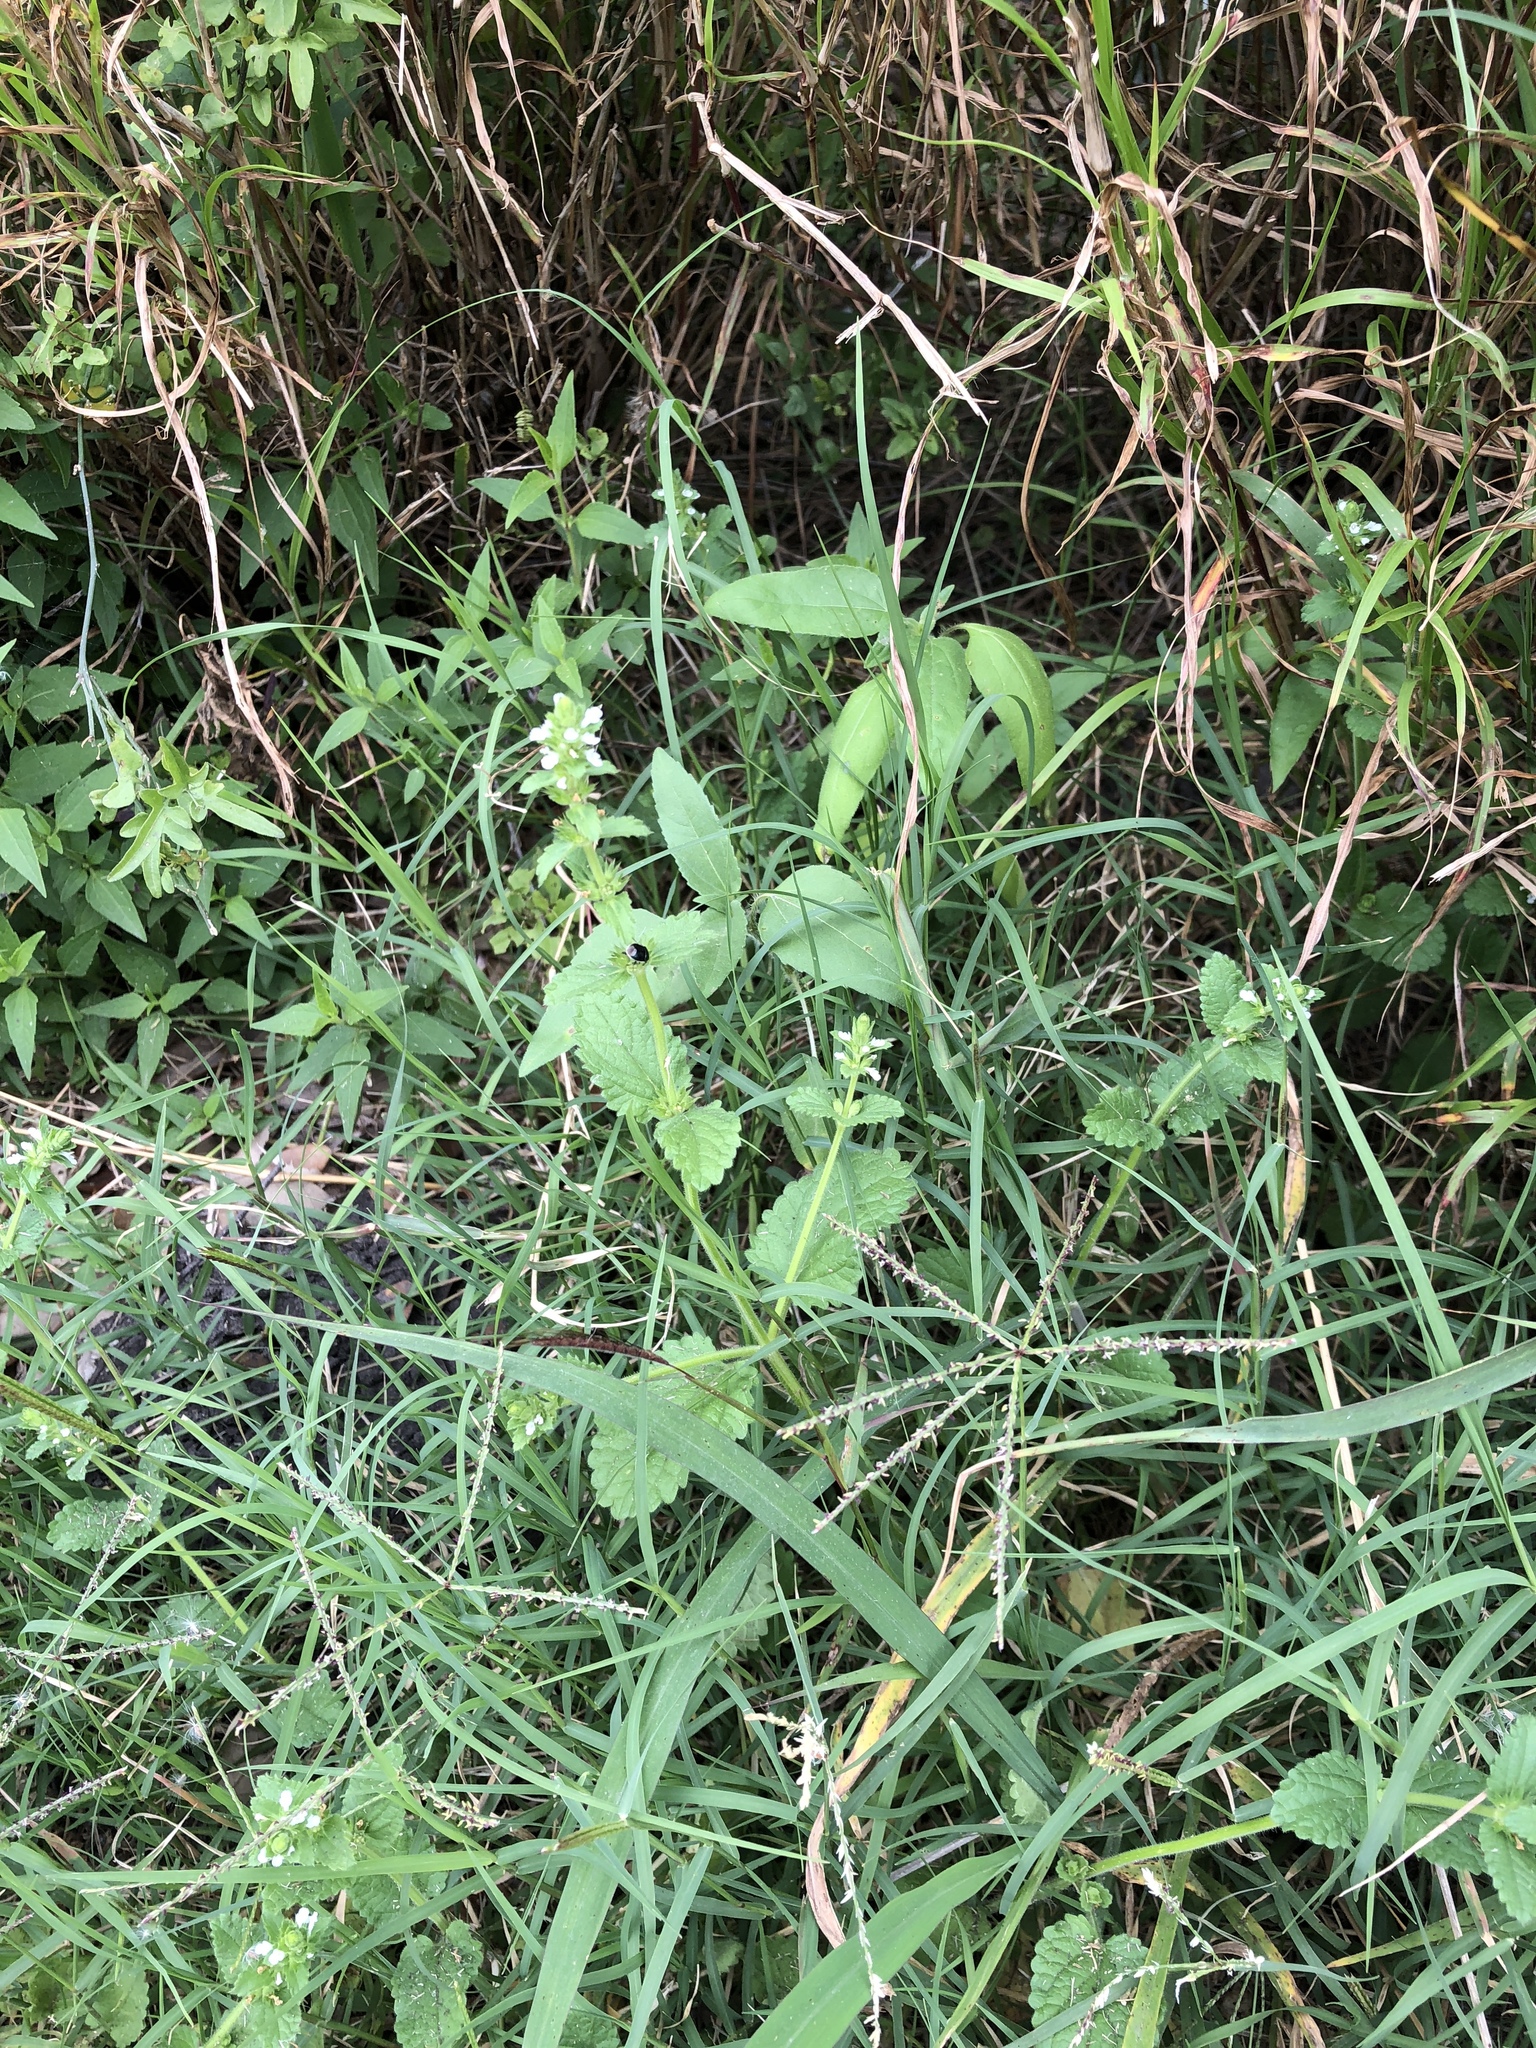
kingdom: Plantae
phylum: Tracheophyta
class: Magnoliopsida
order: Lamiales
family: Lamiaceae
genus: Stachys
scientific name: Stachys
